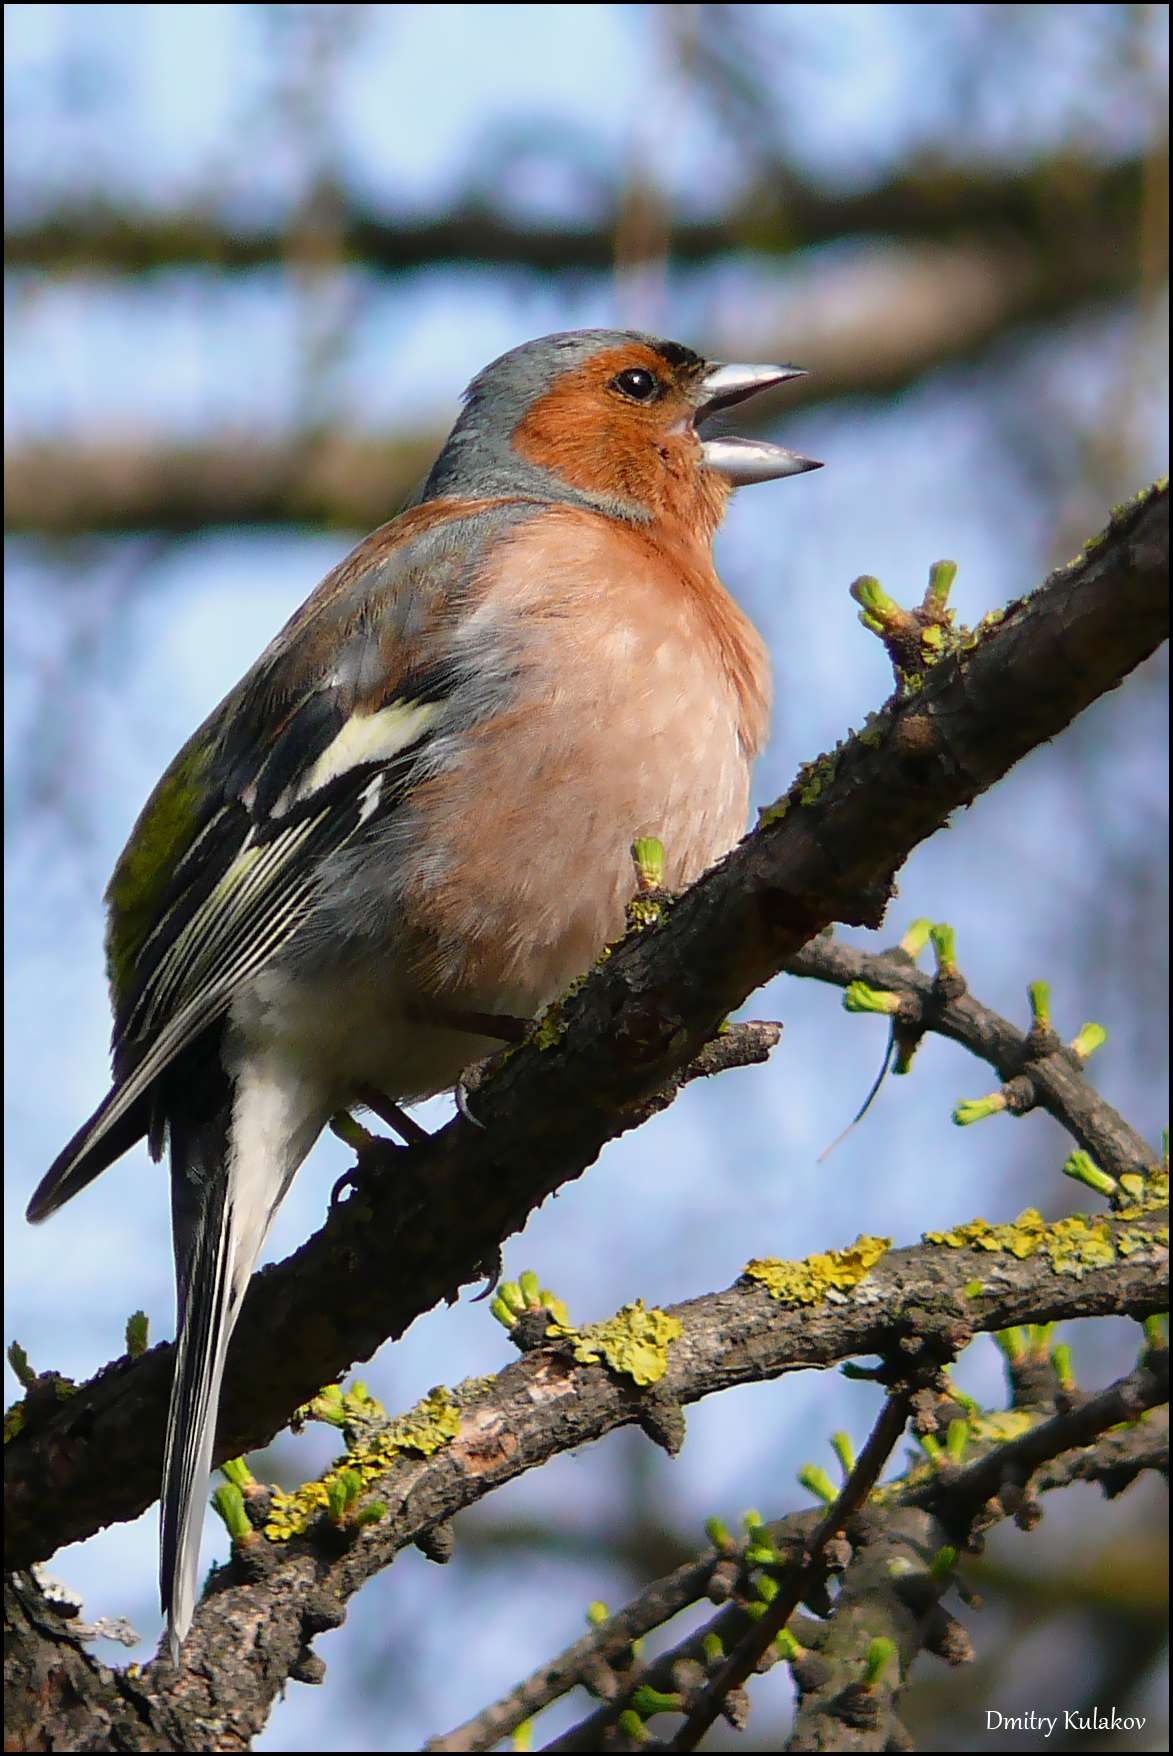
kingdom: Animalia
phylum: Chordata
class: Aves
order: Passeriformes
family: Fringillidae
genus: Fringilla
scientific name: Fringilla coelebs
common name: Common chaffinch
